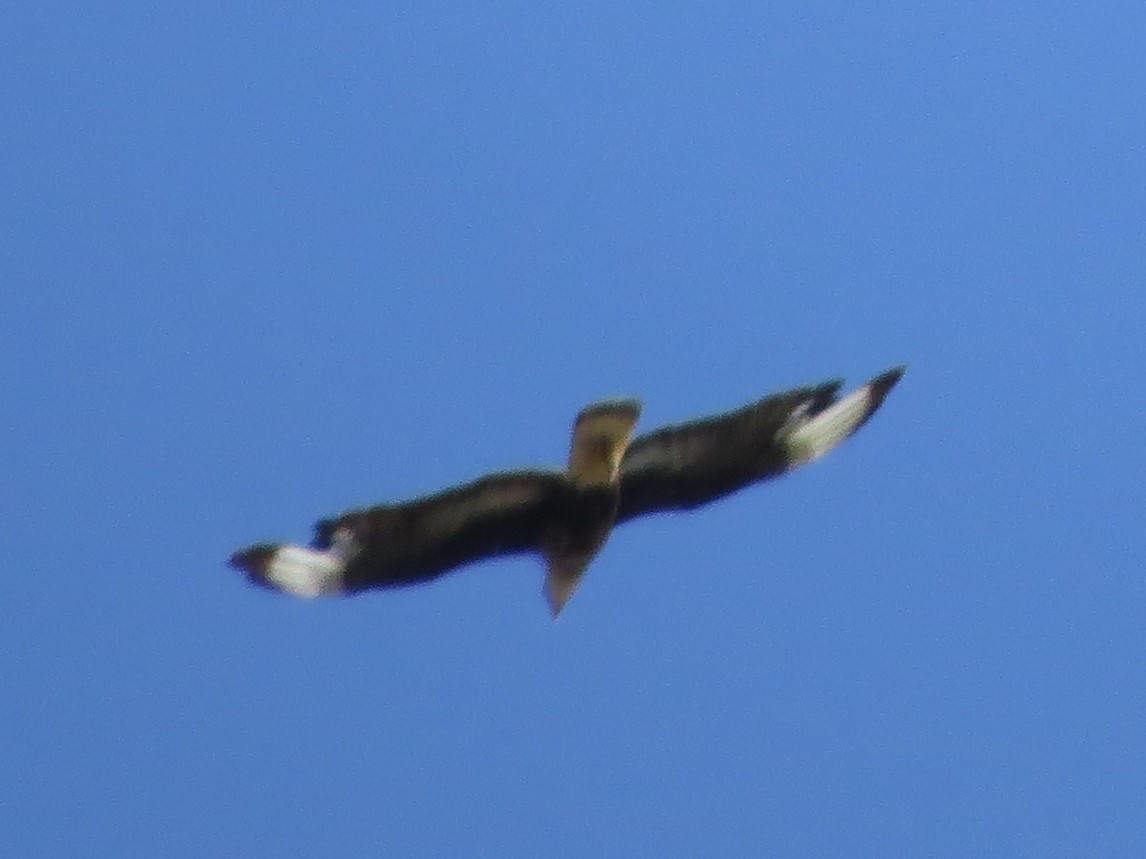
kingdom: Animalia
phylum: Chordata
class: Aves
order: Falconiformes
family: Falconidae
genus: Caracara
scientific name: Caracara plancus
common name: Southern caracara
